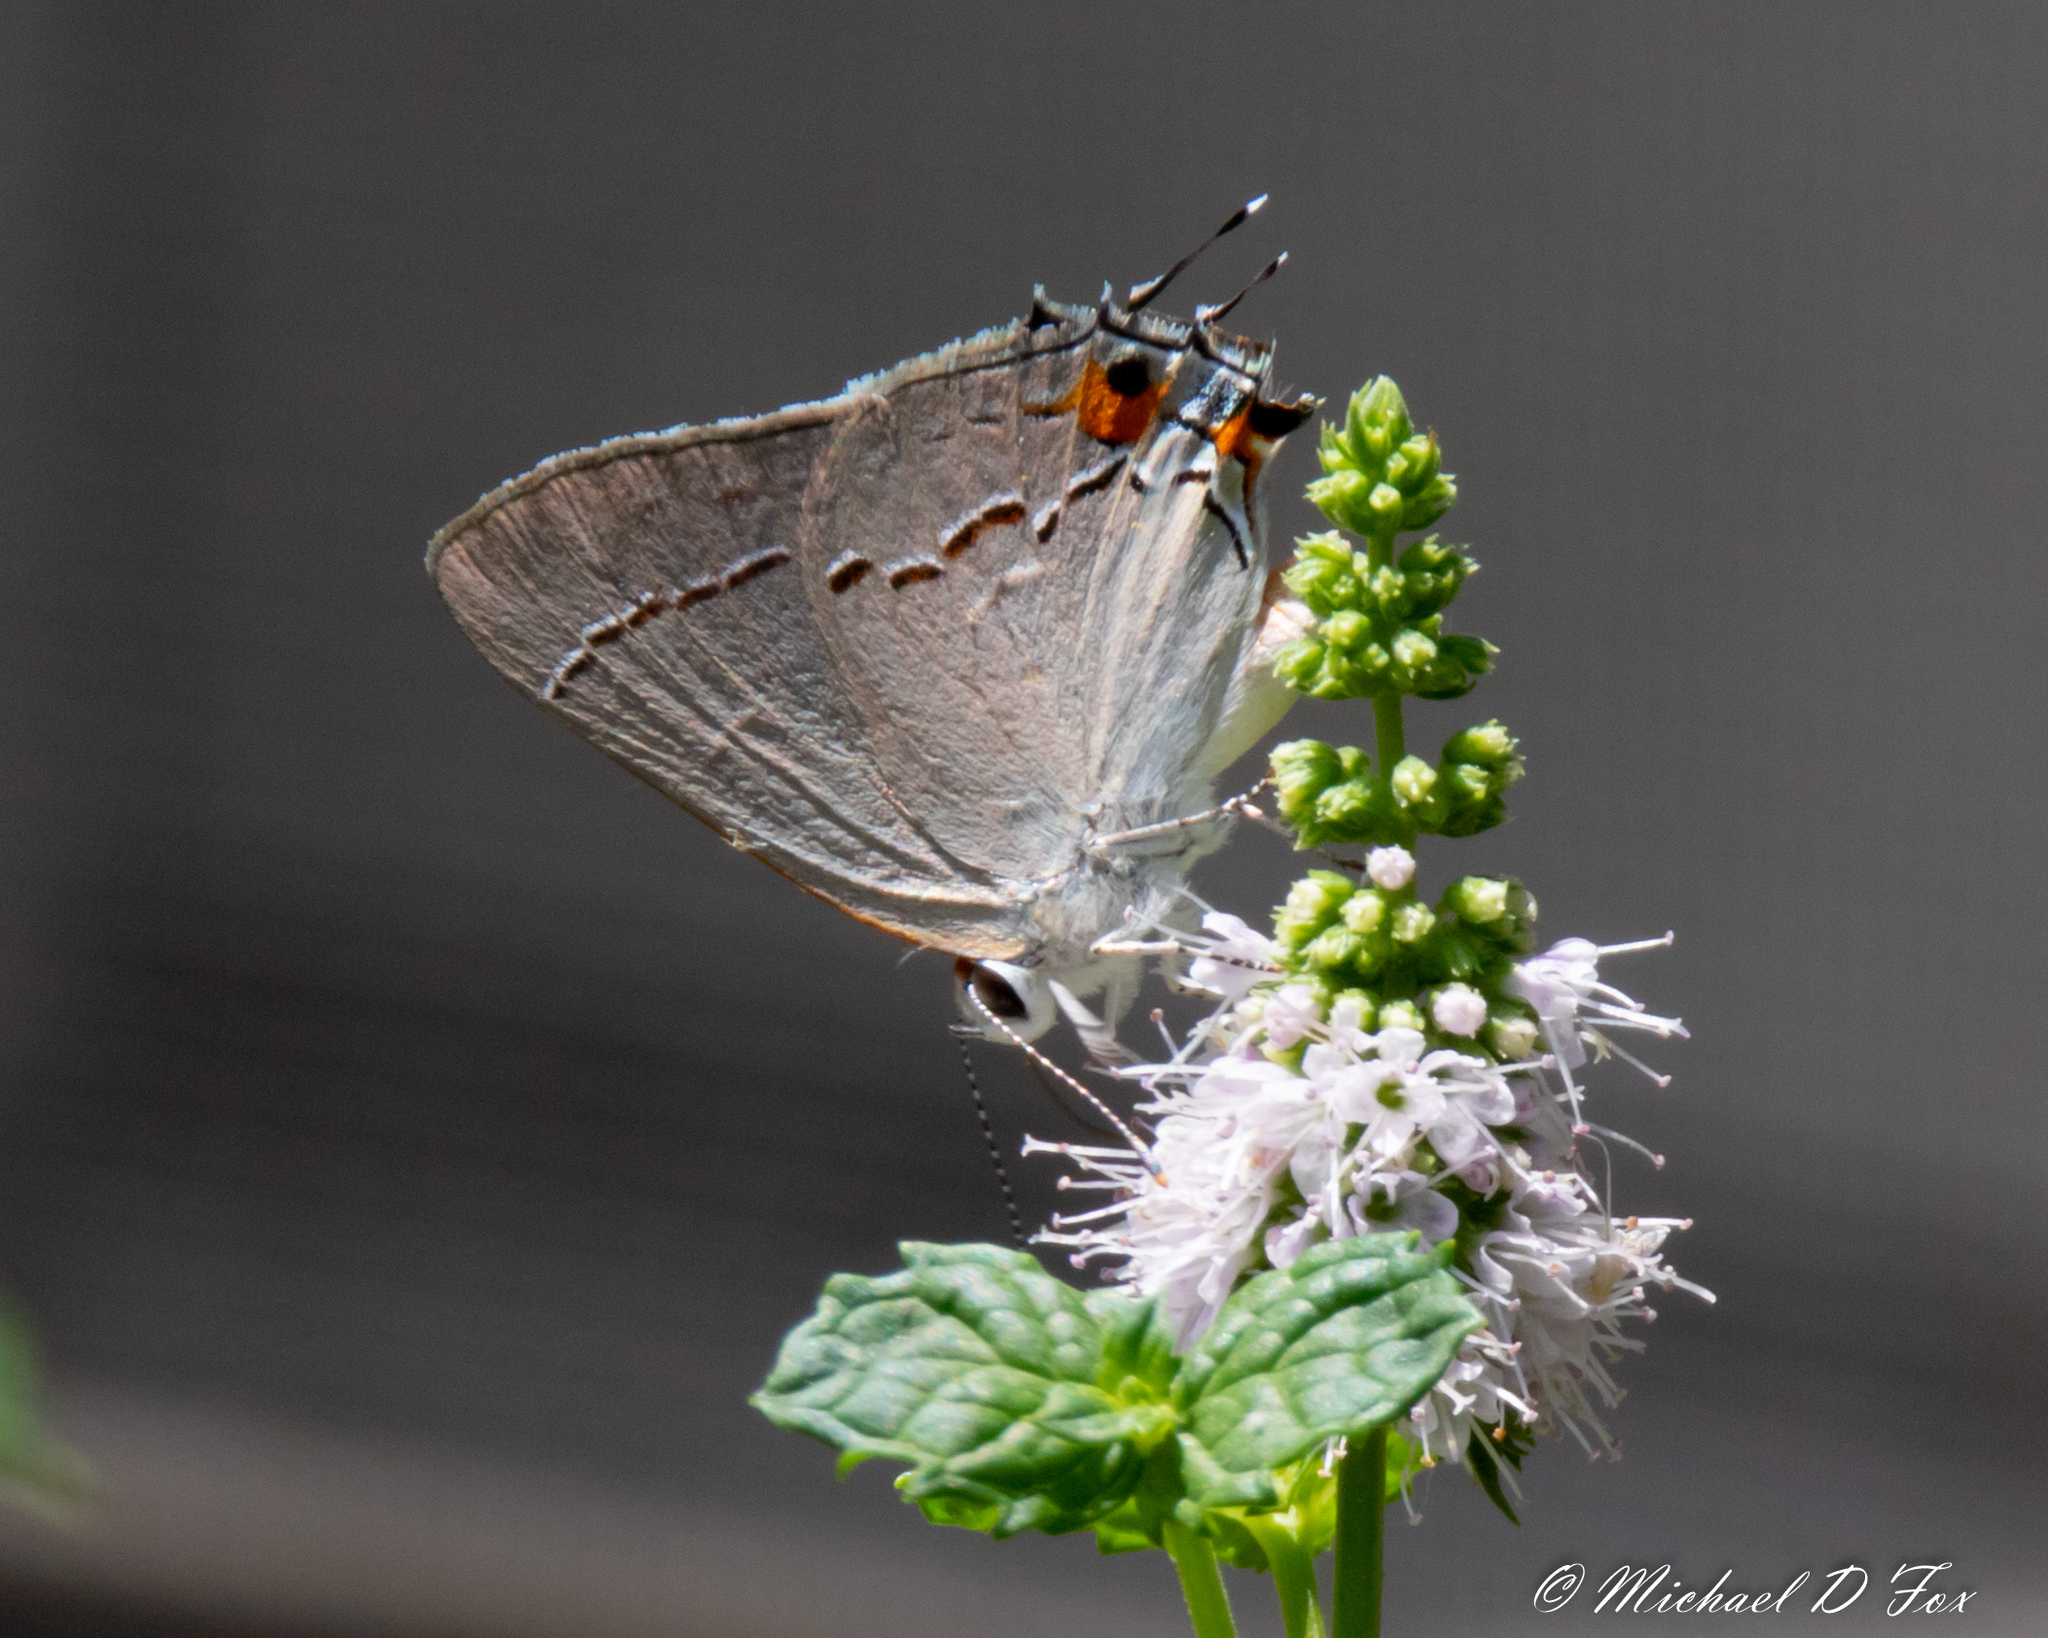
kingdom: Animalia
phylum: Arthropoda
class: Insecta
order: Lepidoptera
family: Lycaenidae
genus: Strymon
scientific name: Strymon melinus
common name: Gray hairstreak
